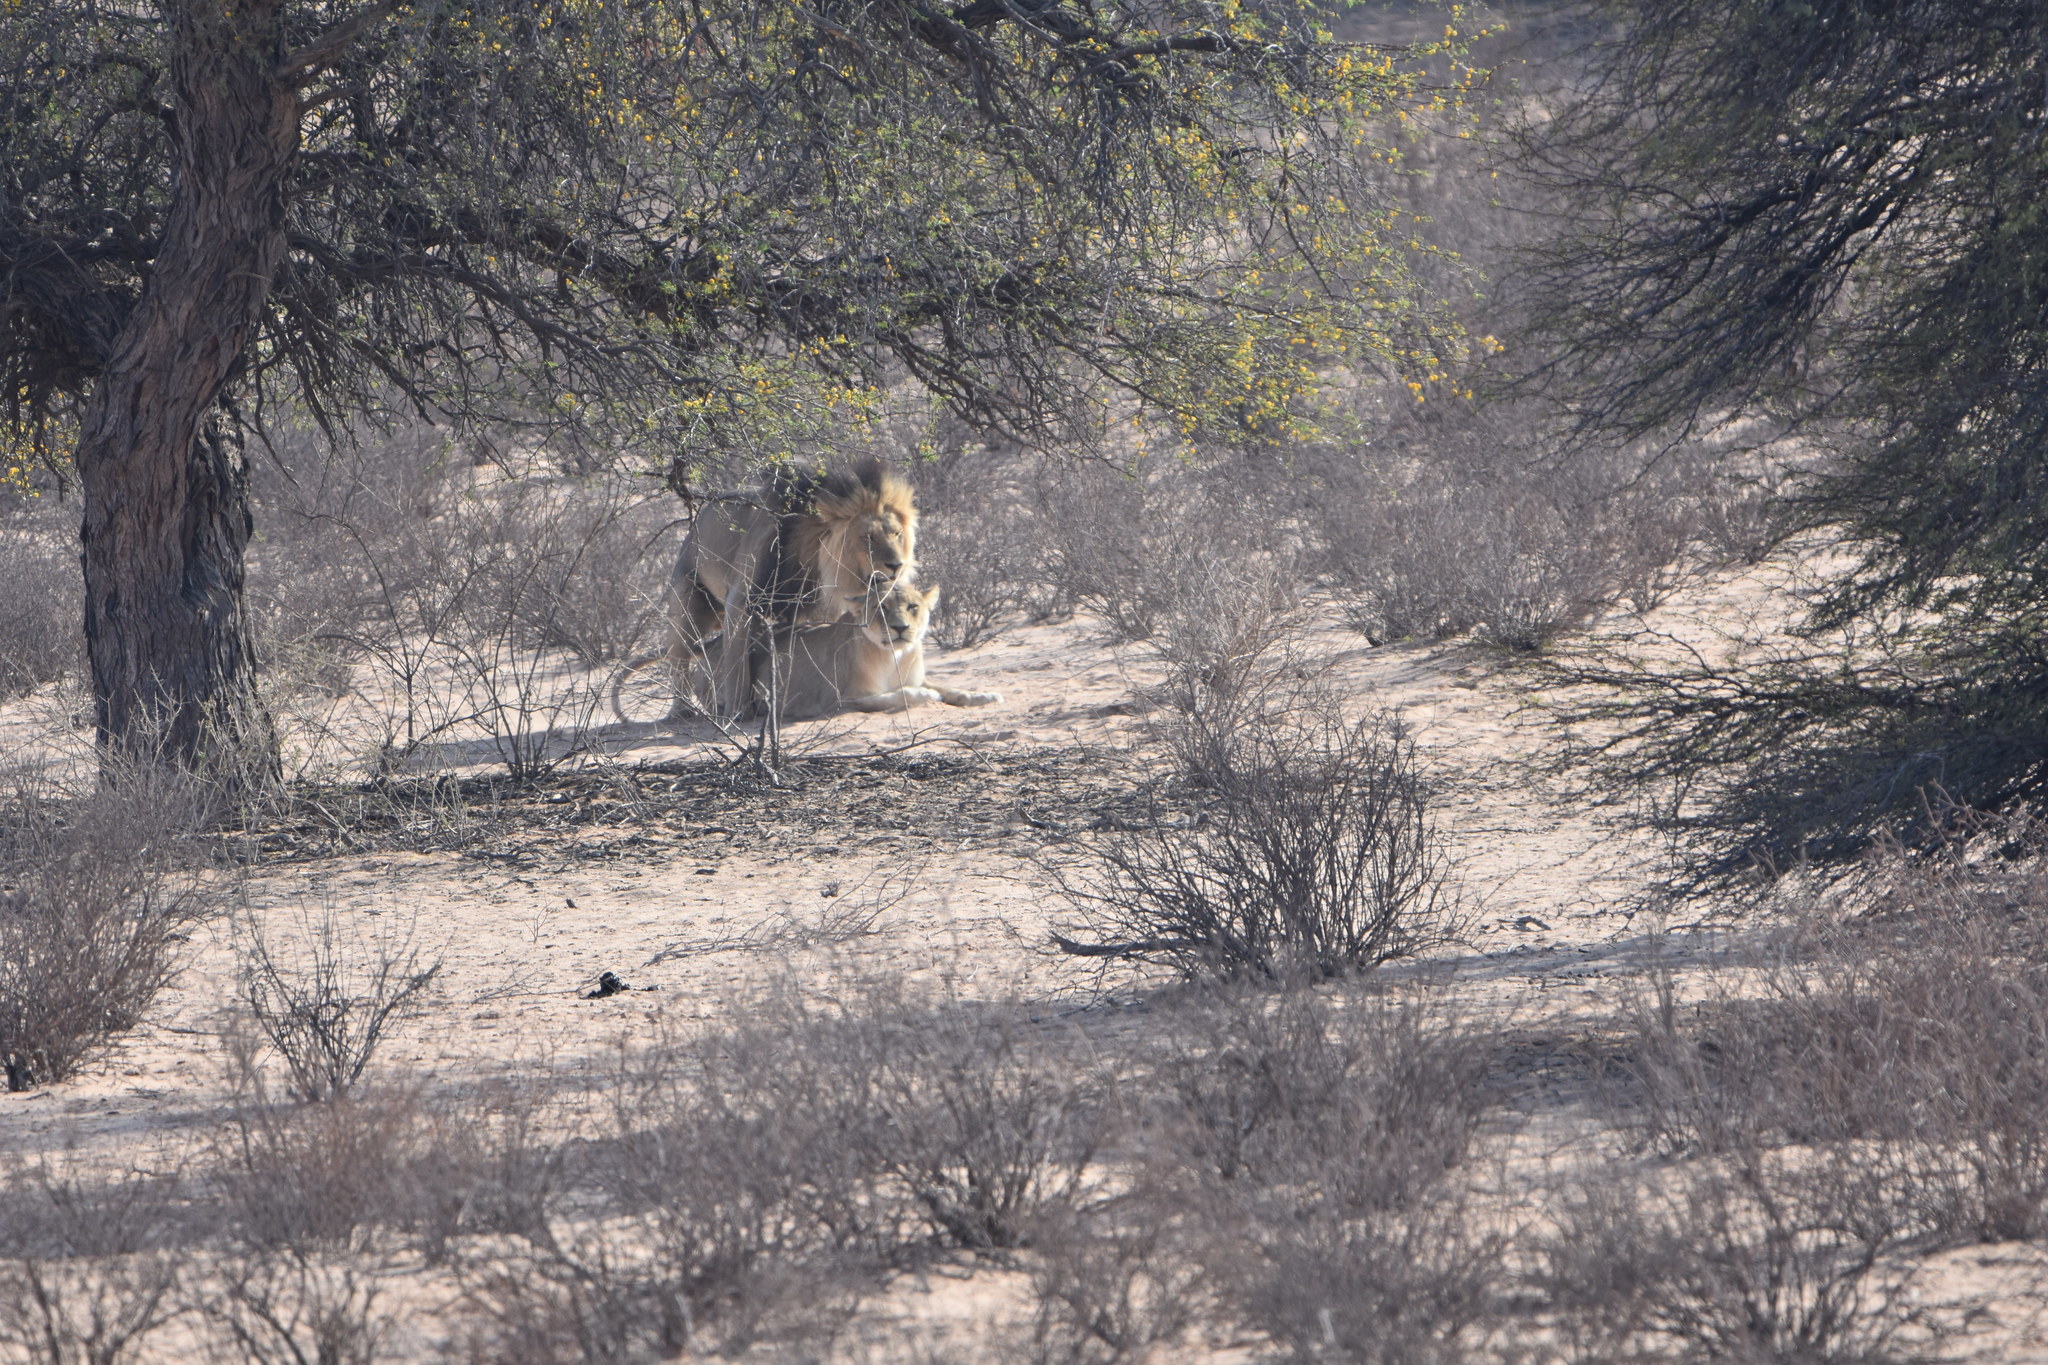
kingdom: Animalia
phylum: Chordata
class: Mammalia
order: Carnivora
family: Felidae
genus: Panthera
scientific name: Panthera leo
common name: Lion
